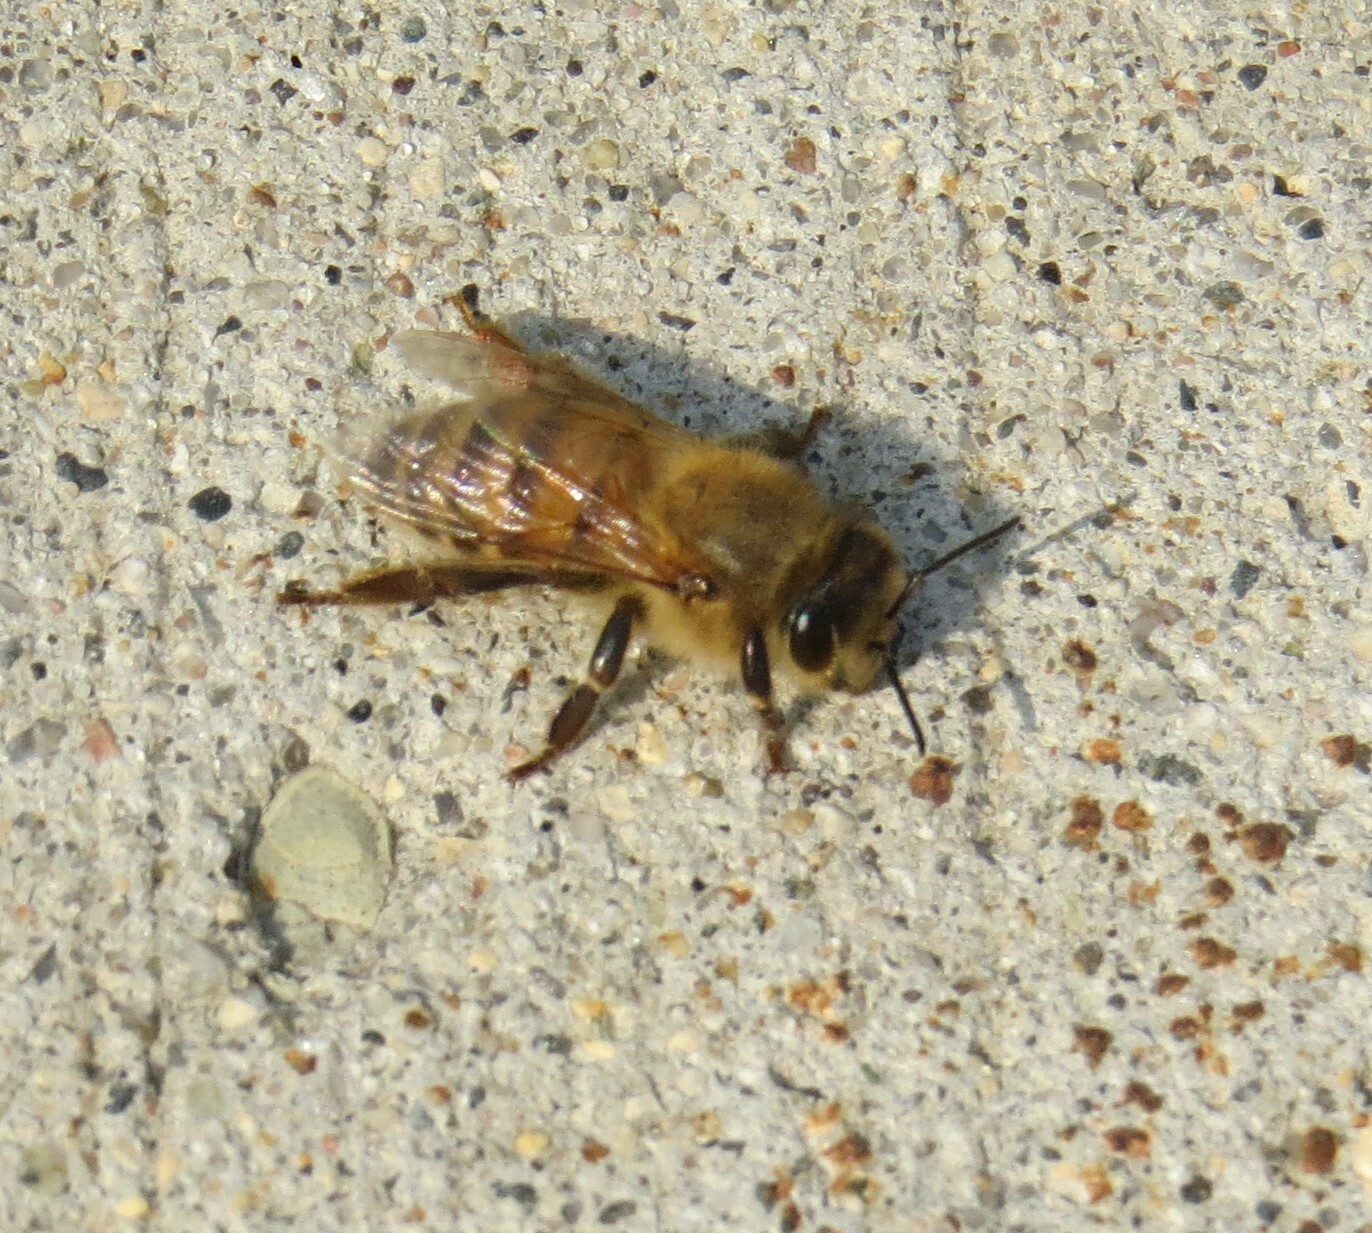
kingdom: Animalia
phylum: Arthropoda
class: Insecta
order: Hymenoptera
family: Apidae
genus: Apis
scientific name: Apis mellifera
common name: Honey bee
